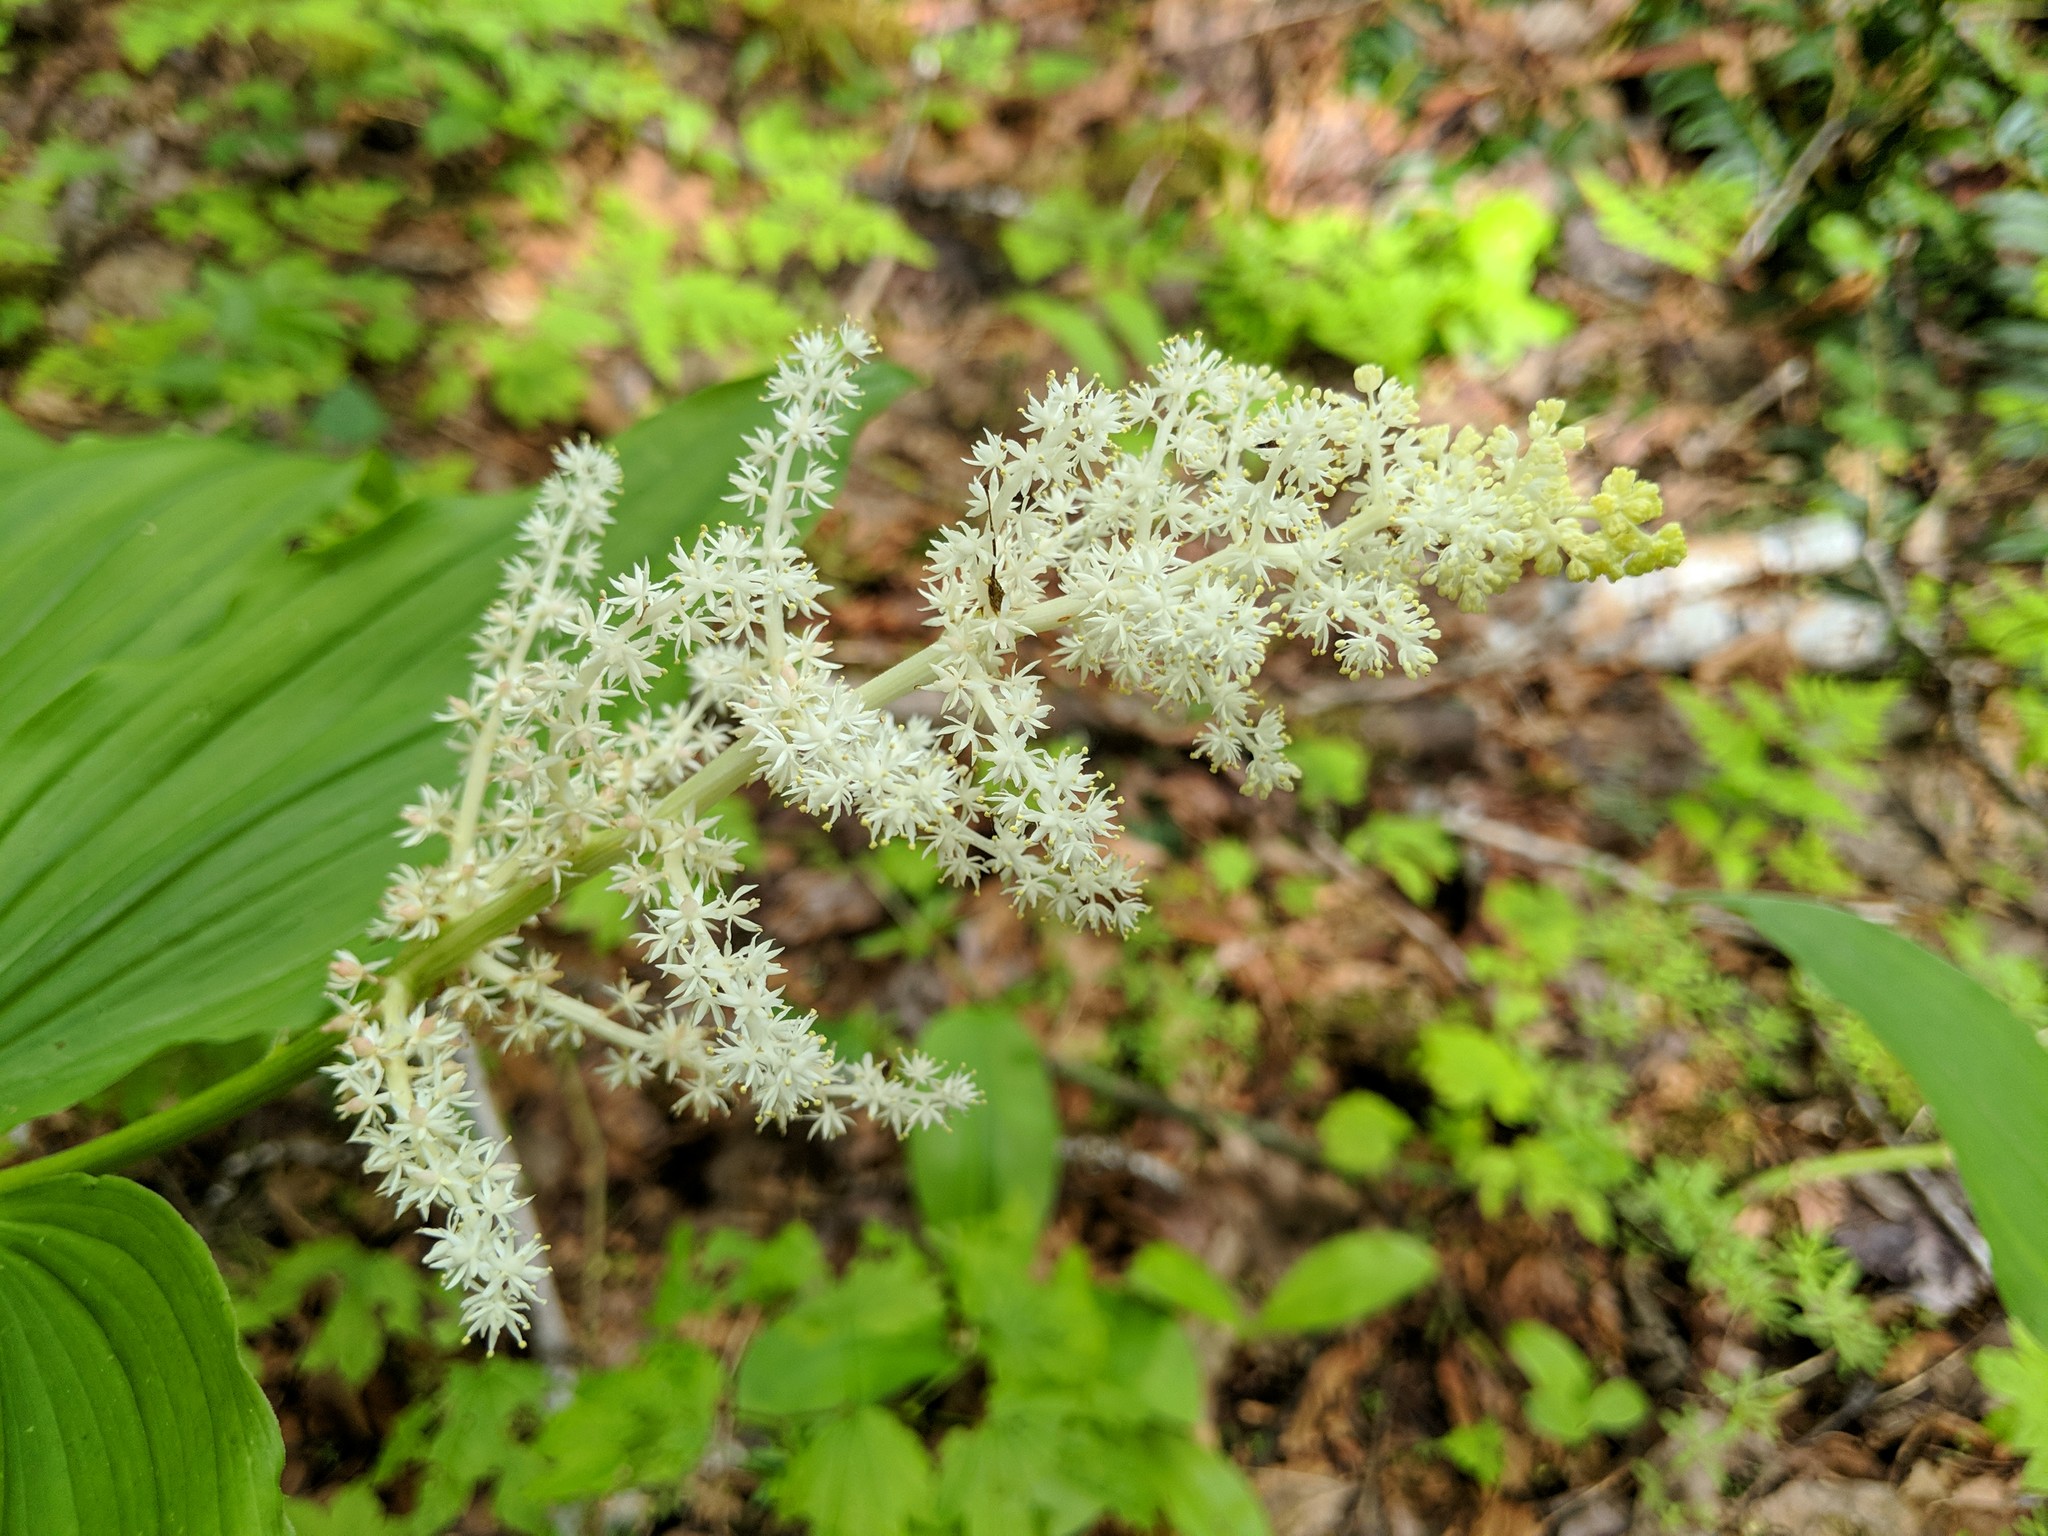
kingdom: Plantae
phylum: Tracheophyta
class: Liliopsida
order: Asparagales
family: Asparagaceae
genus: Maianthemum
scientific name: Maianthemum racemosum
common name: False spikenard
